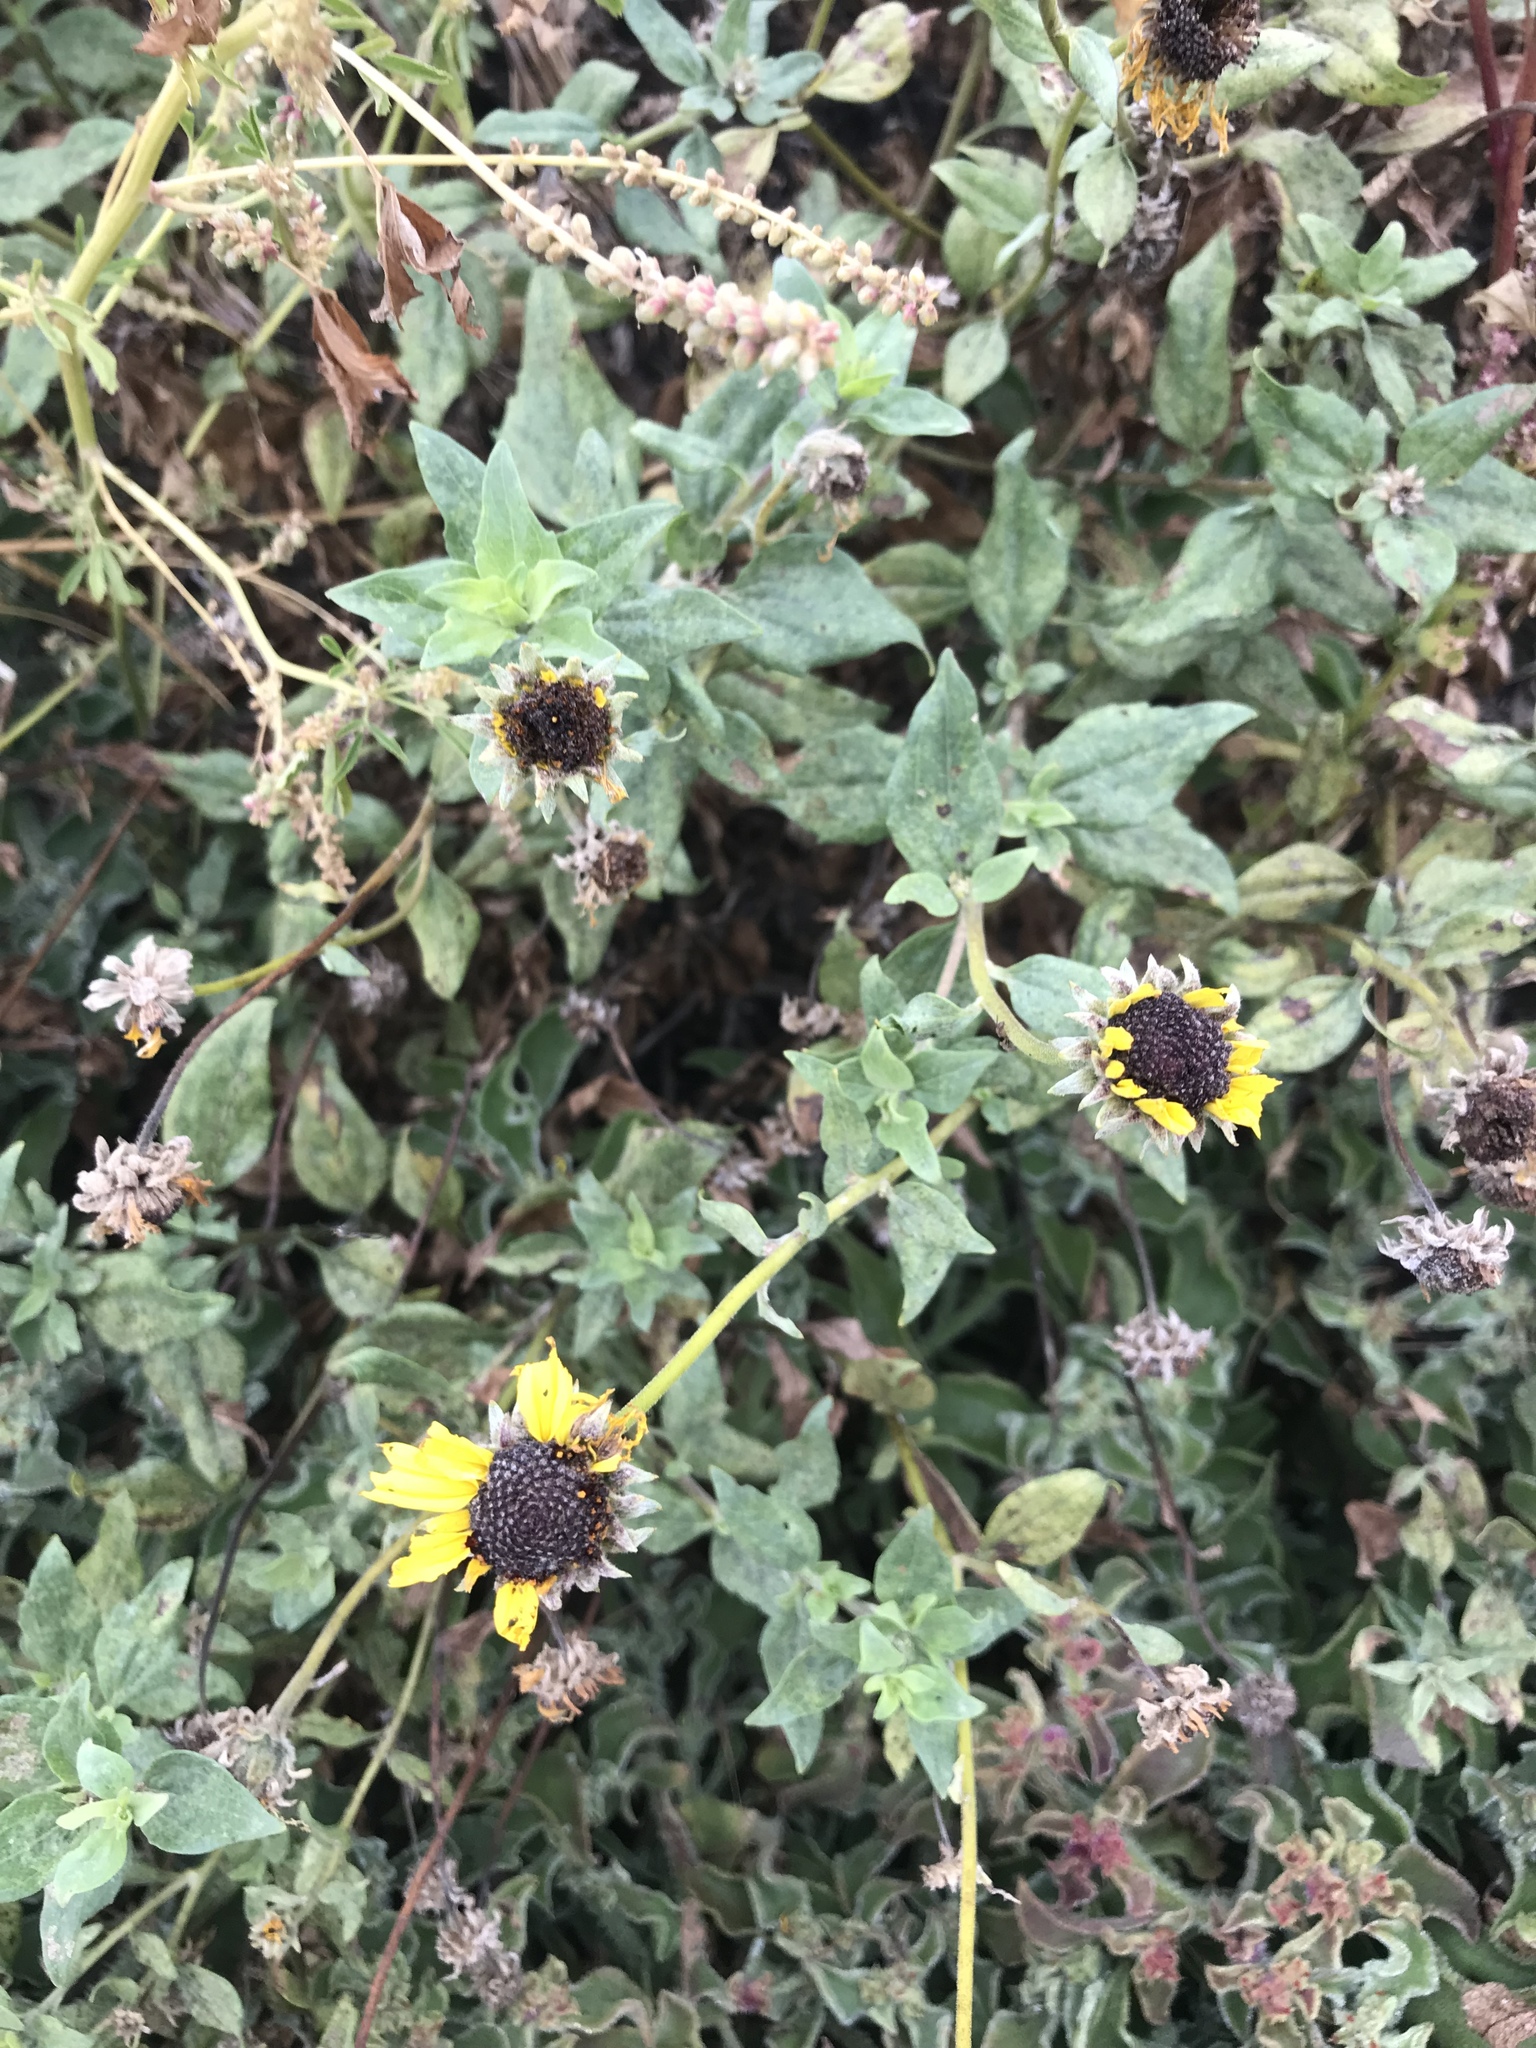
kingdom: Plantae
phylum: Tracheophyta
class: Magnoliopsida
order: Asterales
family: Asteraceae
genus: Encelia
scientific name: Encelia californica
